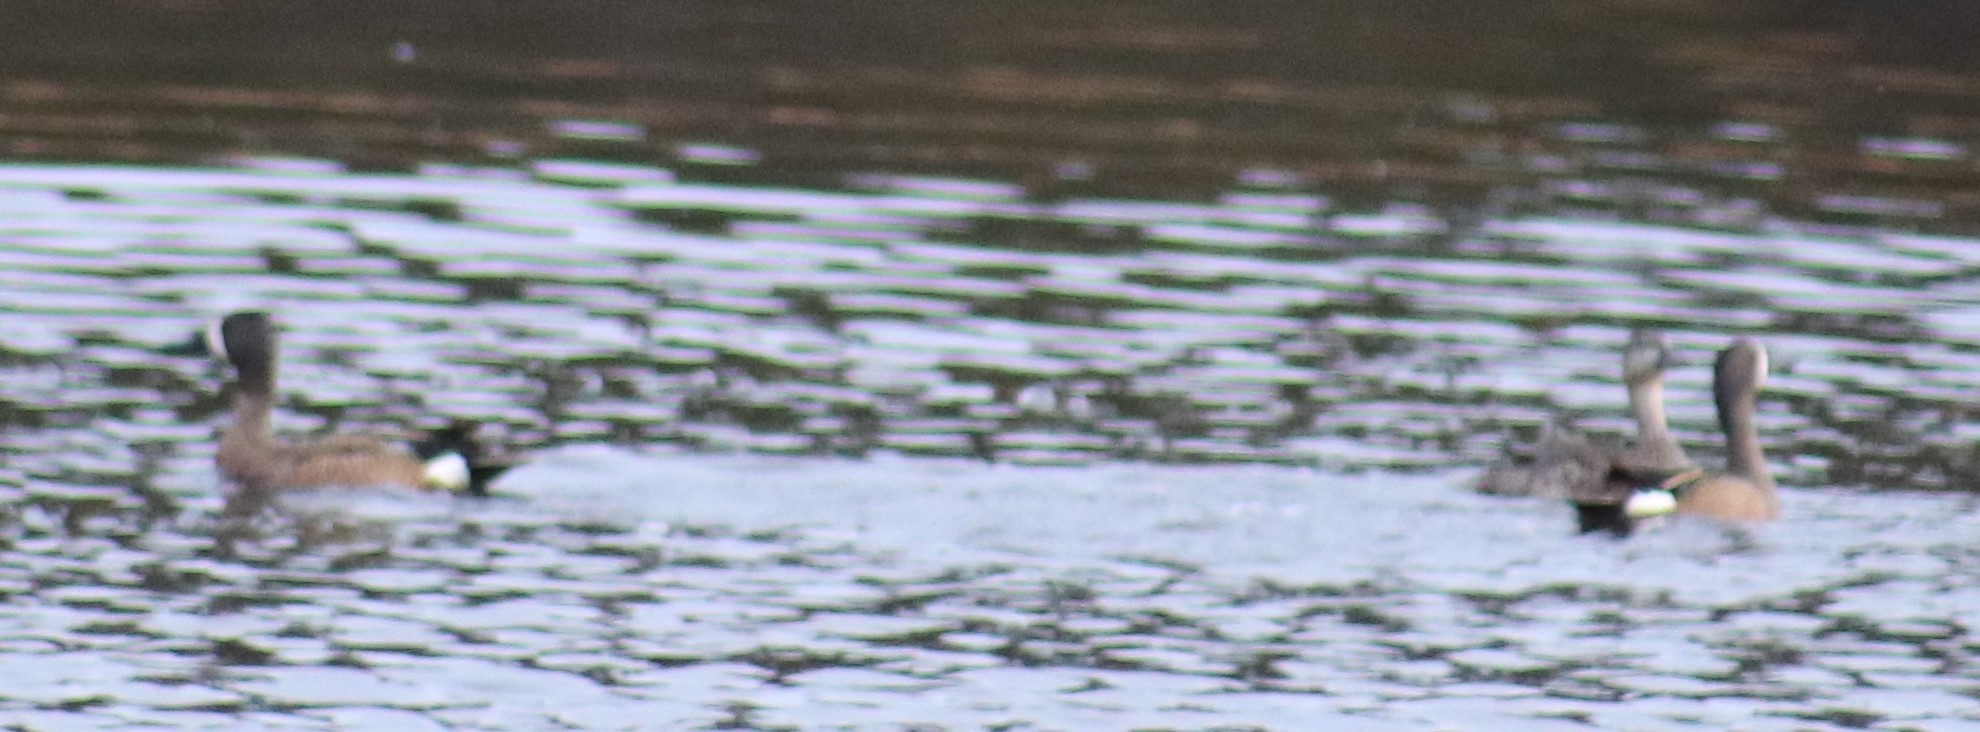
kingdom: Animalia
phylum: Chordata
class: Aves
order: Anseriformes
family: Anatidae
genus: Spatula
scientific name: Spatula discors
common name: Blue-winged teal
